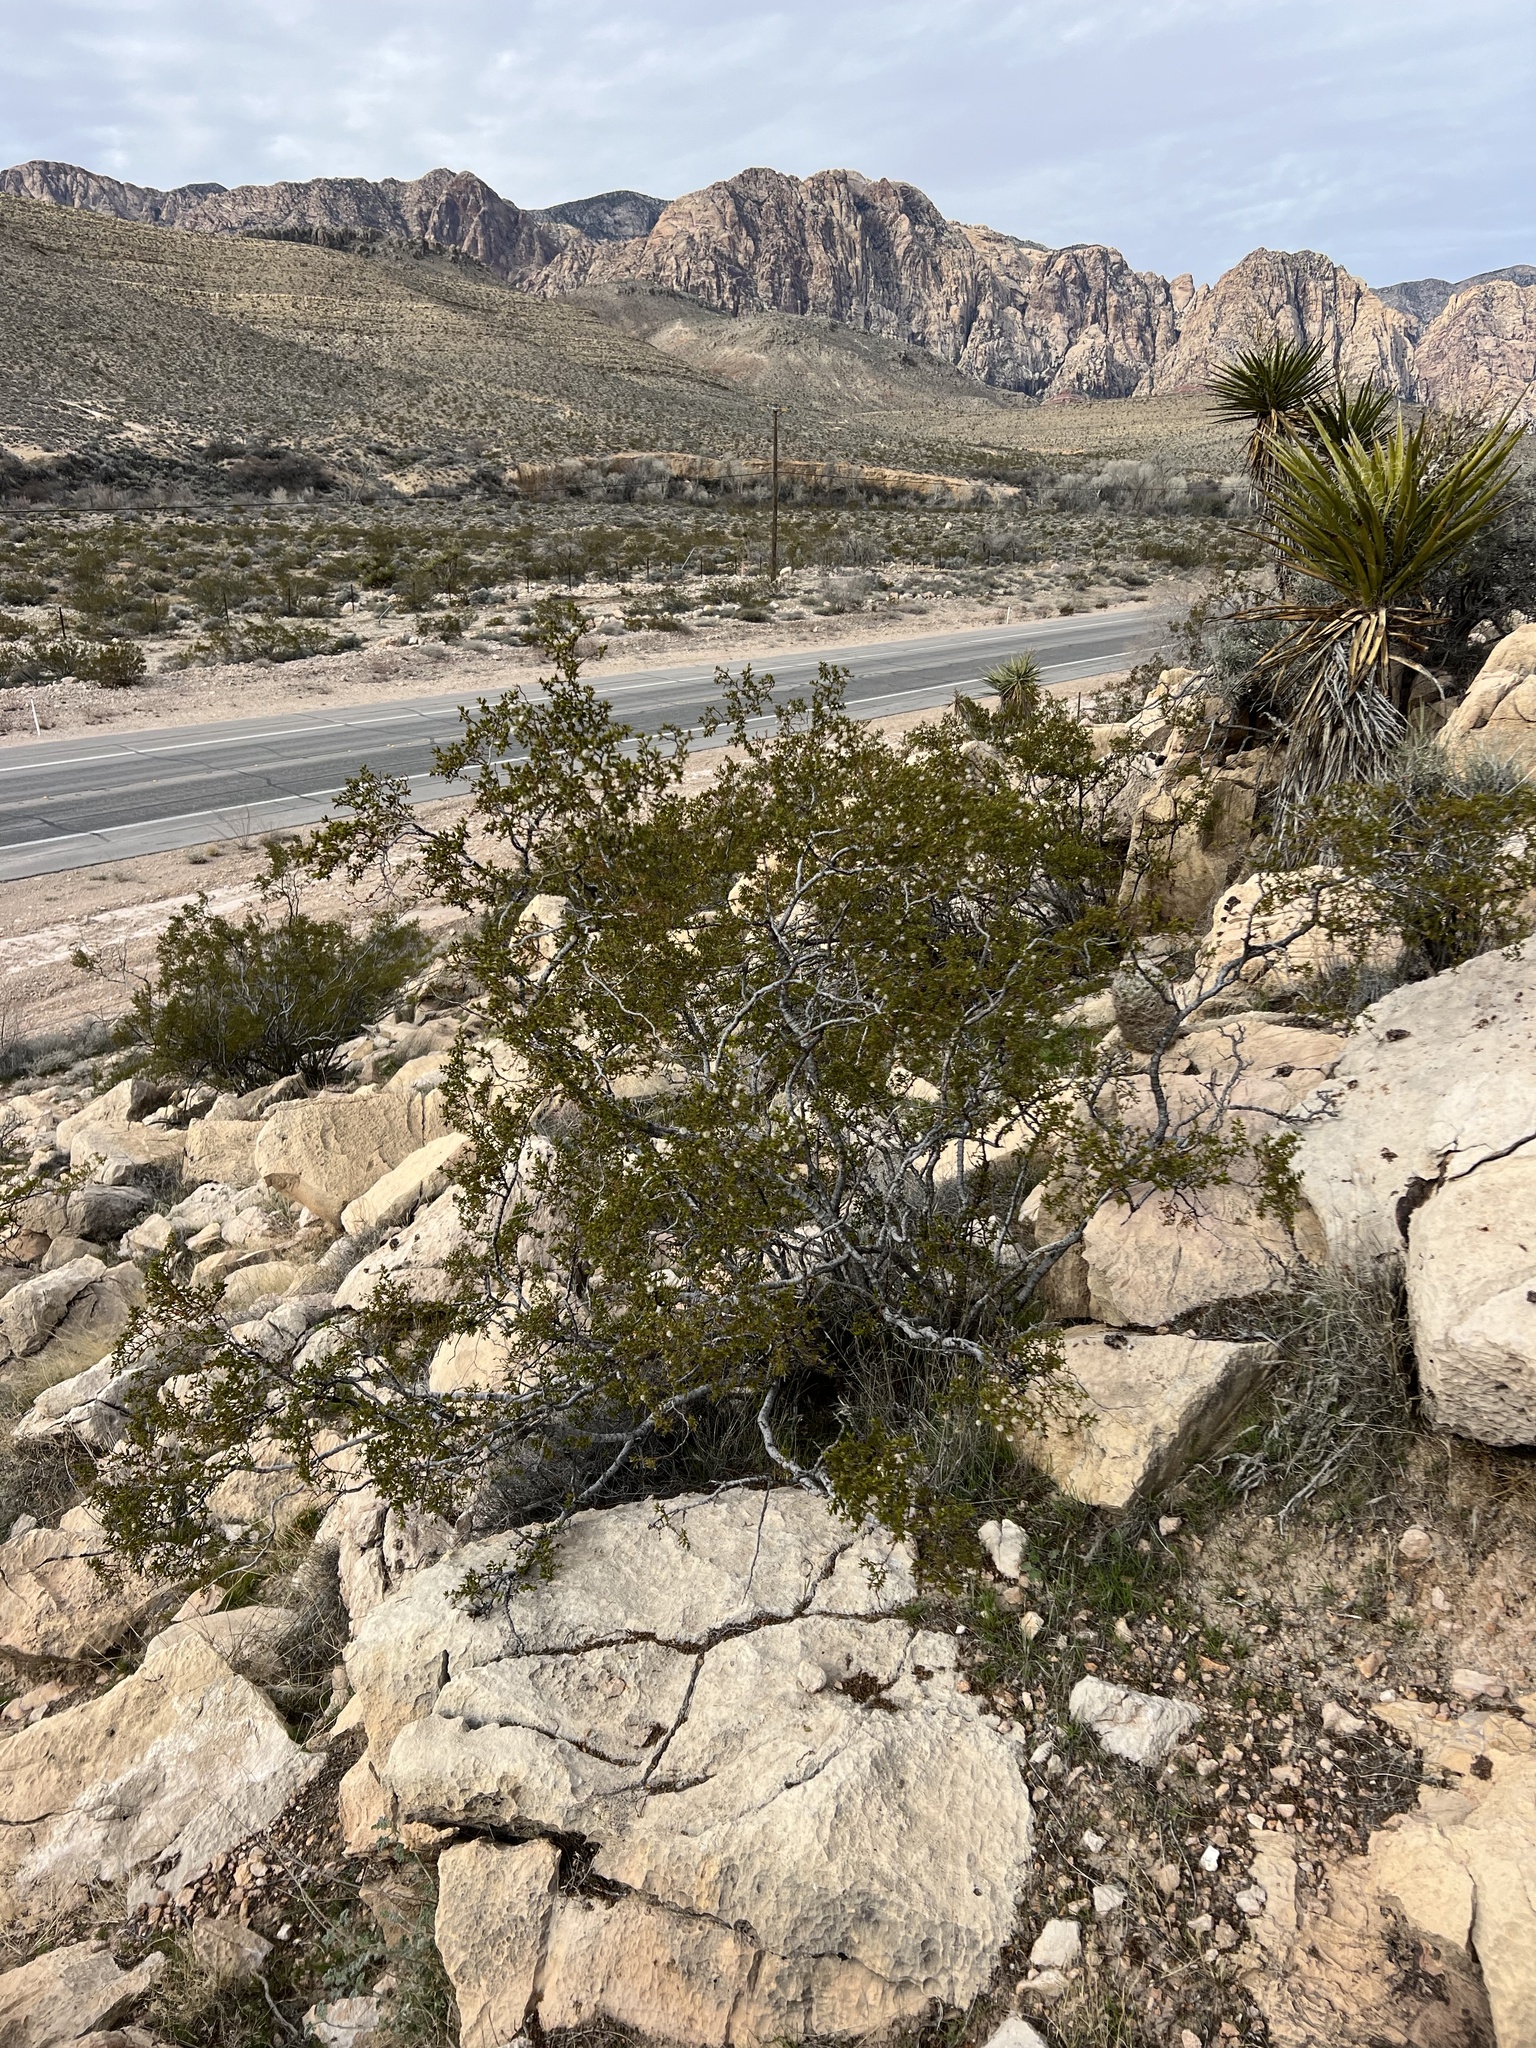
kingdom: Plantae
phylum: Tracheophyta
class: Magnoliopsida
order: Zygophyllales
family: Zygophyllaceae
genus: Larrea
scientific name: Larrea tridentata
